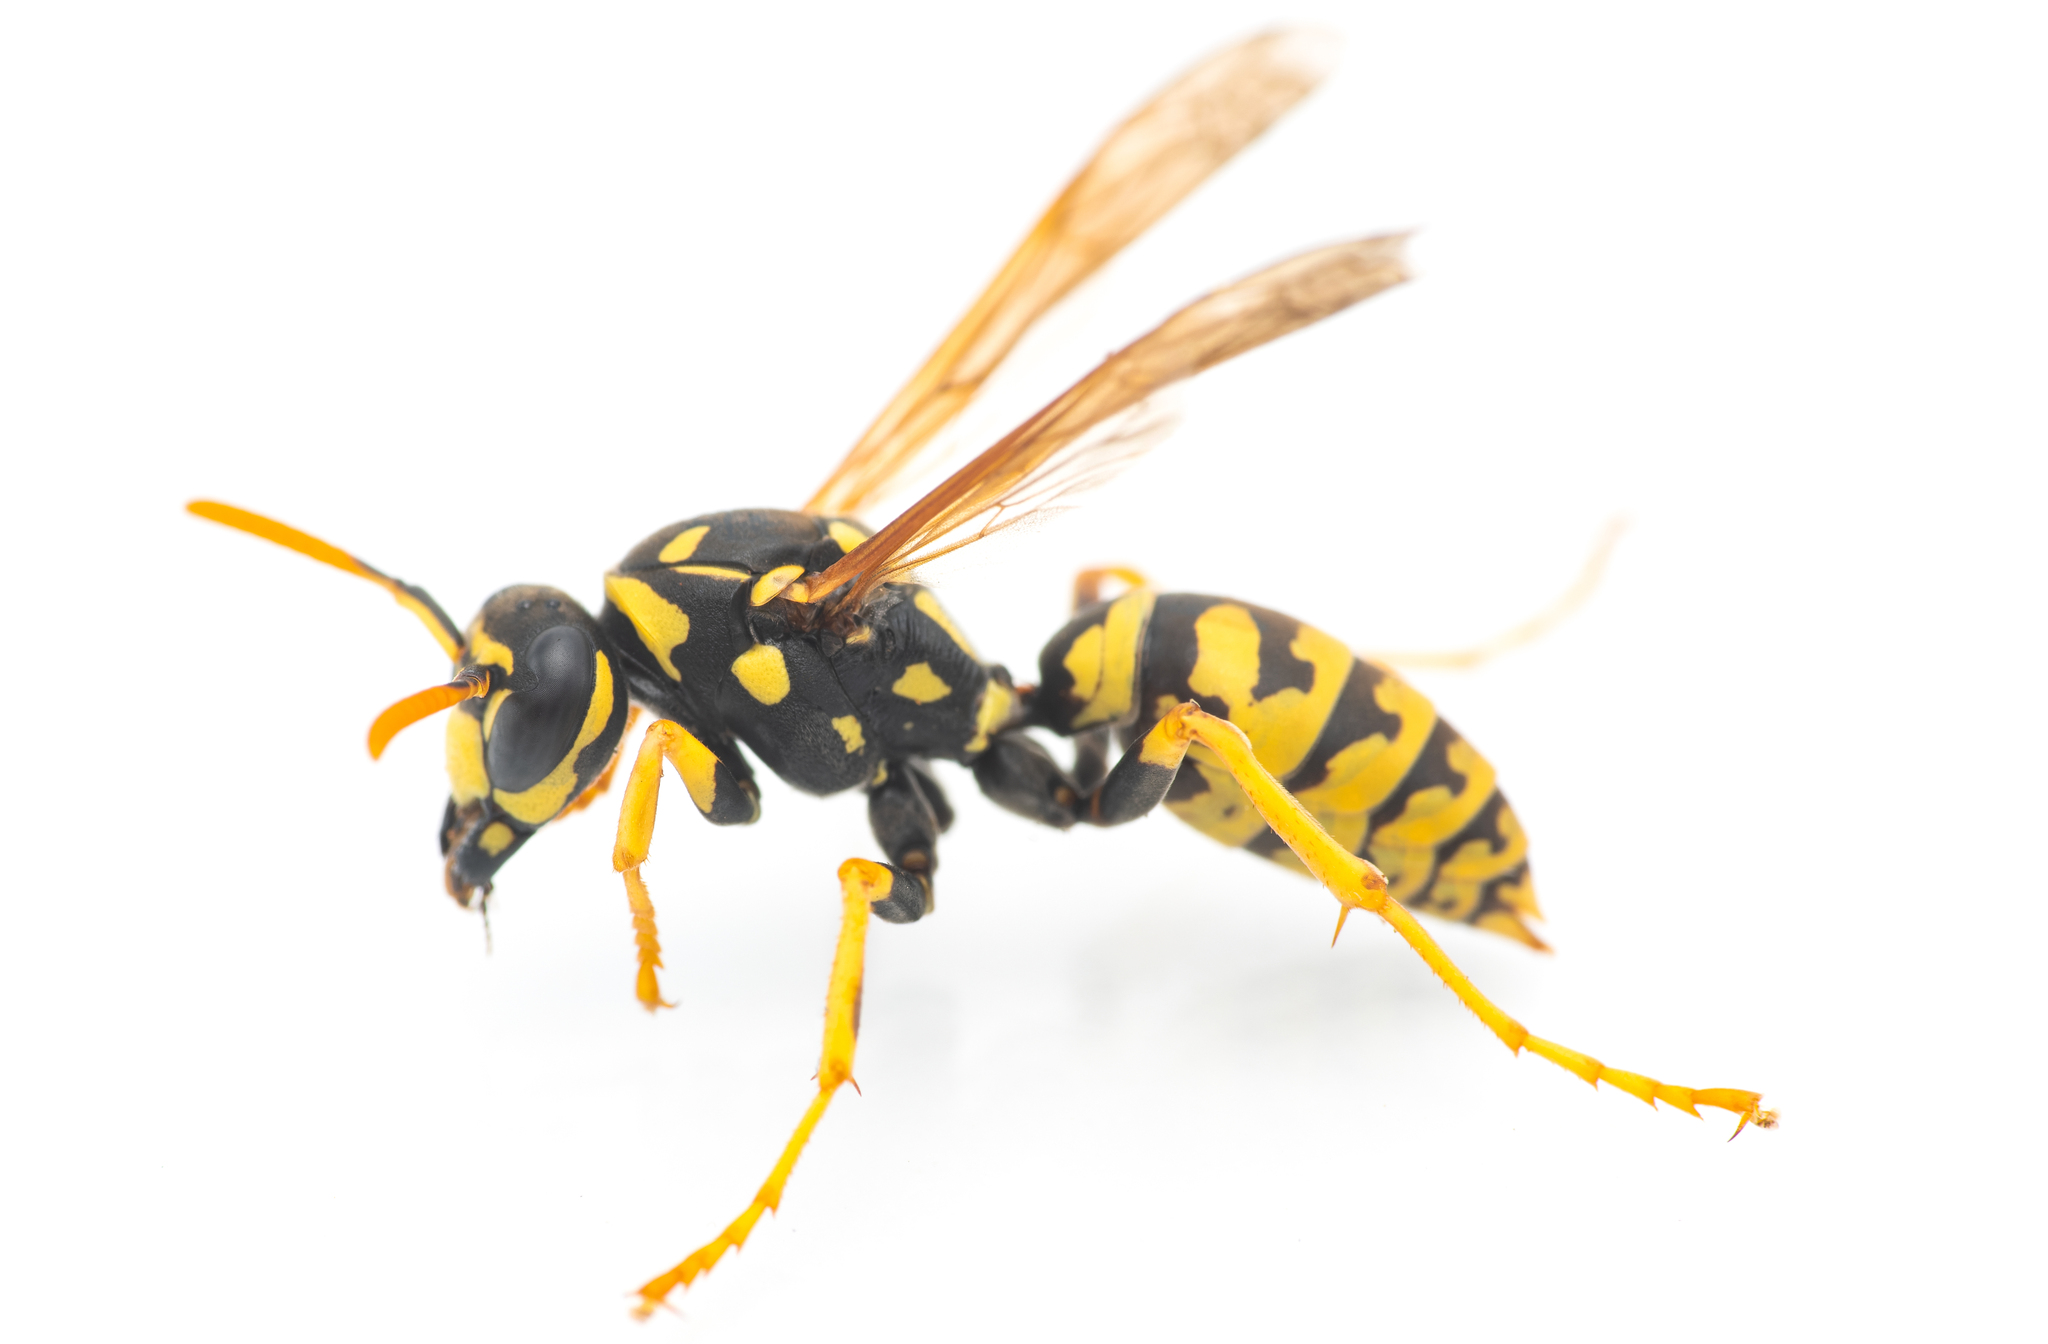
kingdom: Animalia
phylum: Arthropoda
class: Insecta
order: Hymenoptera
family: Eumenidae
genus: Polistes
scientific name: Polistes dominula
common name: Paper wasp
